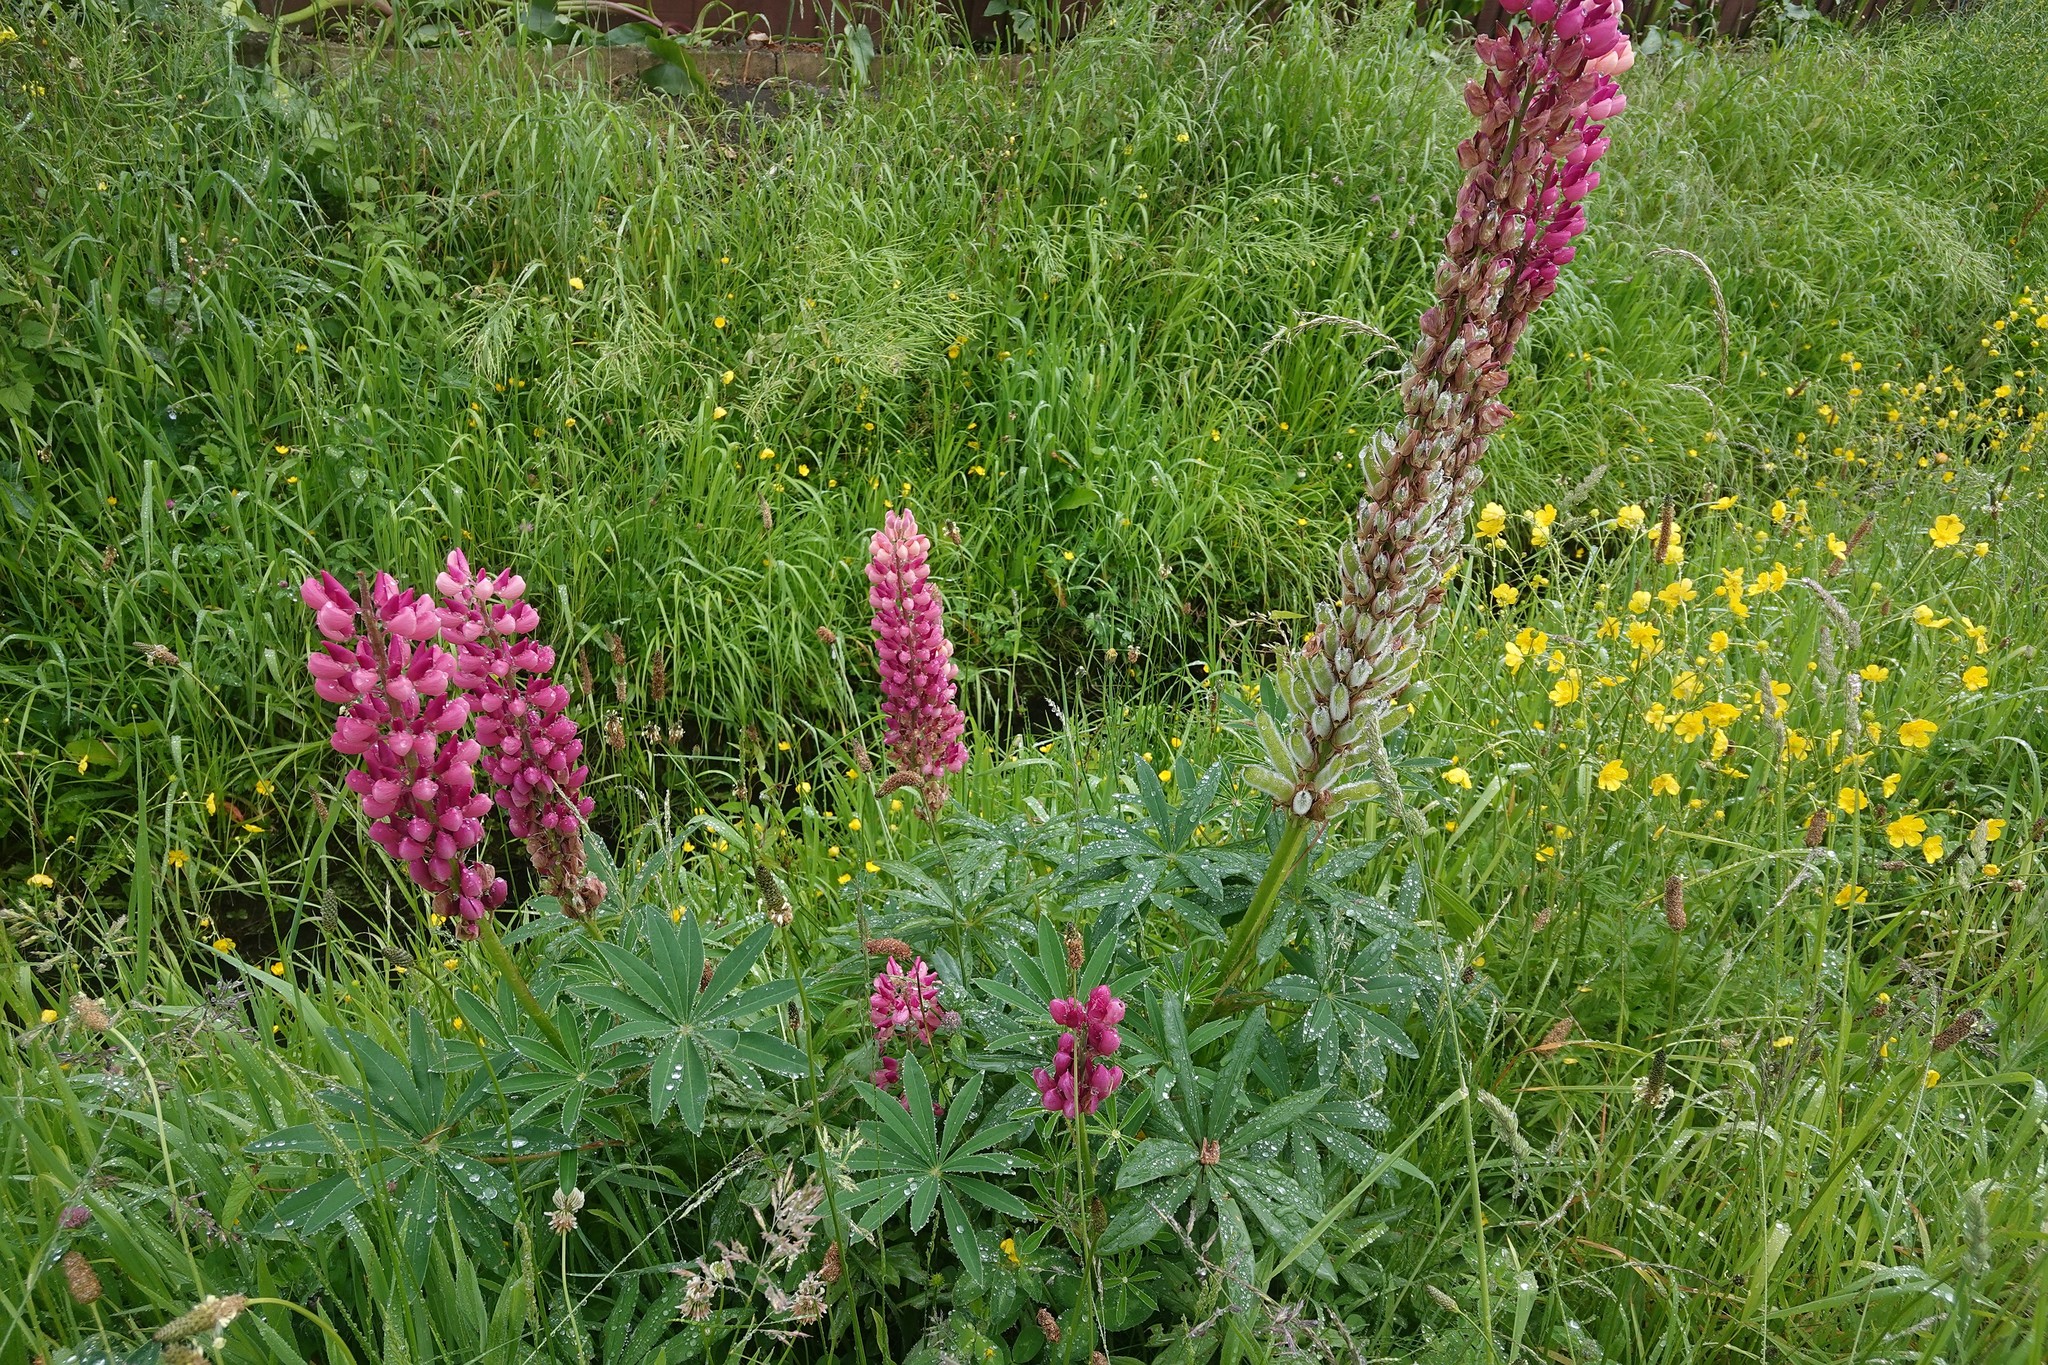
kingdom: Plantae
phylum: Tracheophyta
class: Magnoliopsida
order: Fabales
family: Fabaceae
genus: Lupinus
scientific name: Lupinus polyphyllus
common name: Garden lupin
